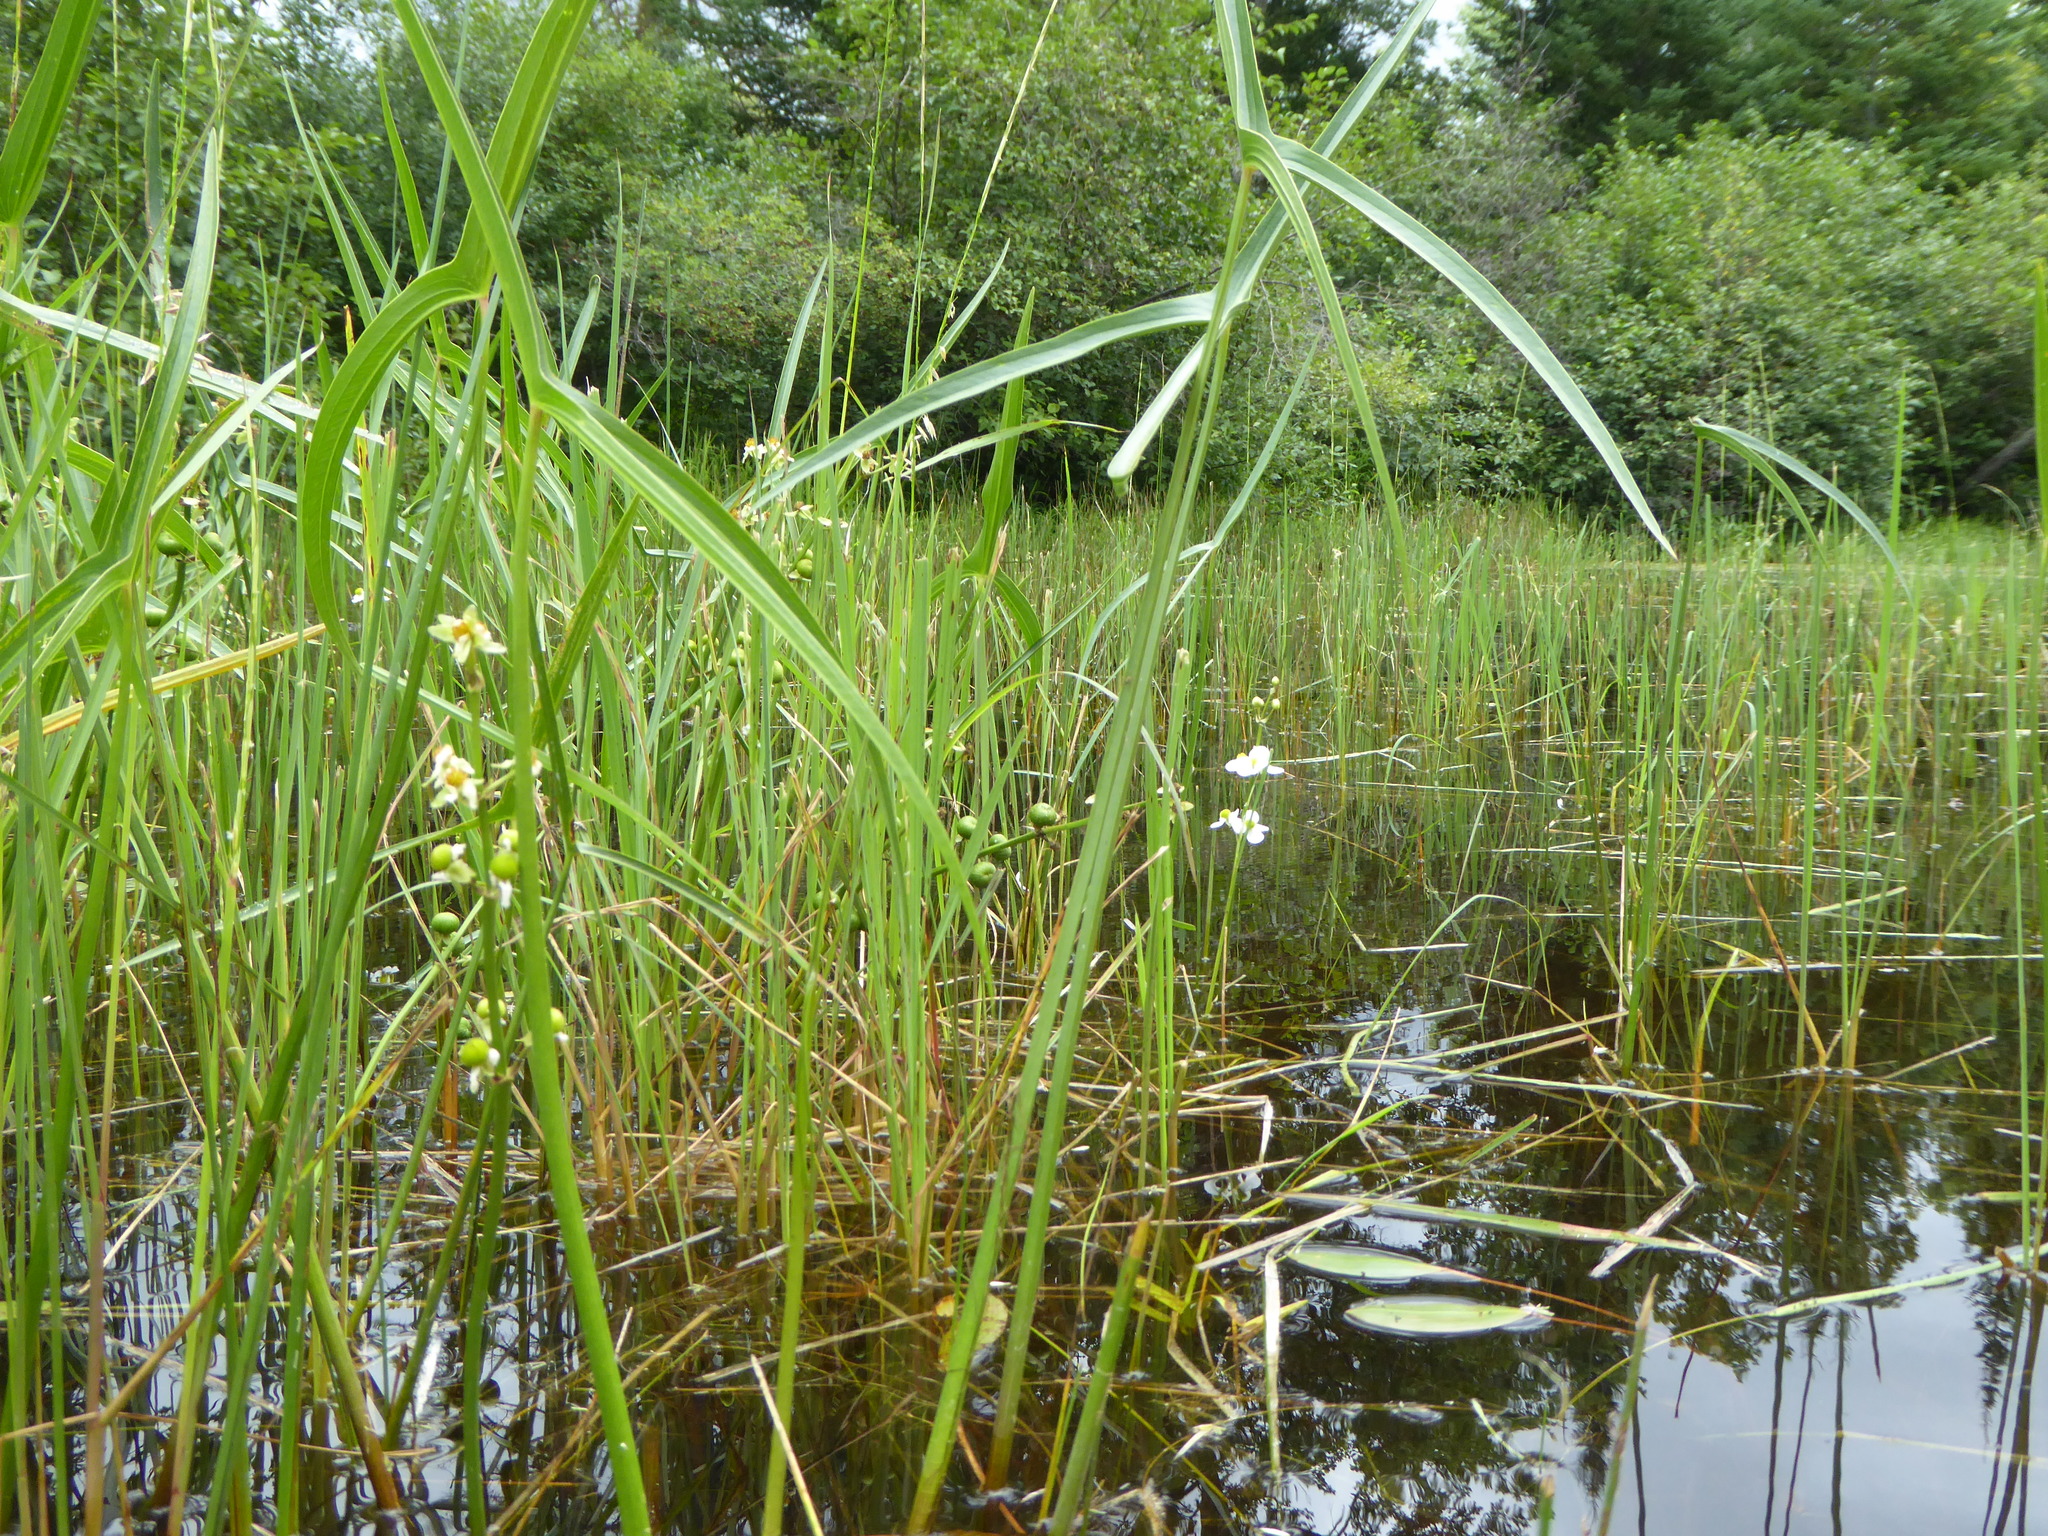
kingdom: Plantae
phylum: Tracheophyta
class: Liliopsida
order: Alismatales
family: Alismataceae
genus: Sagittaria
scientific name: Sagittaria latifolia
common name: Duck-potato
